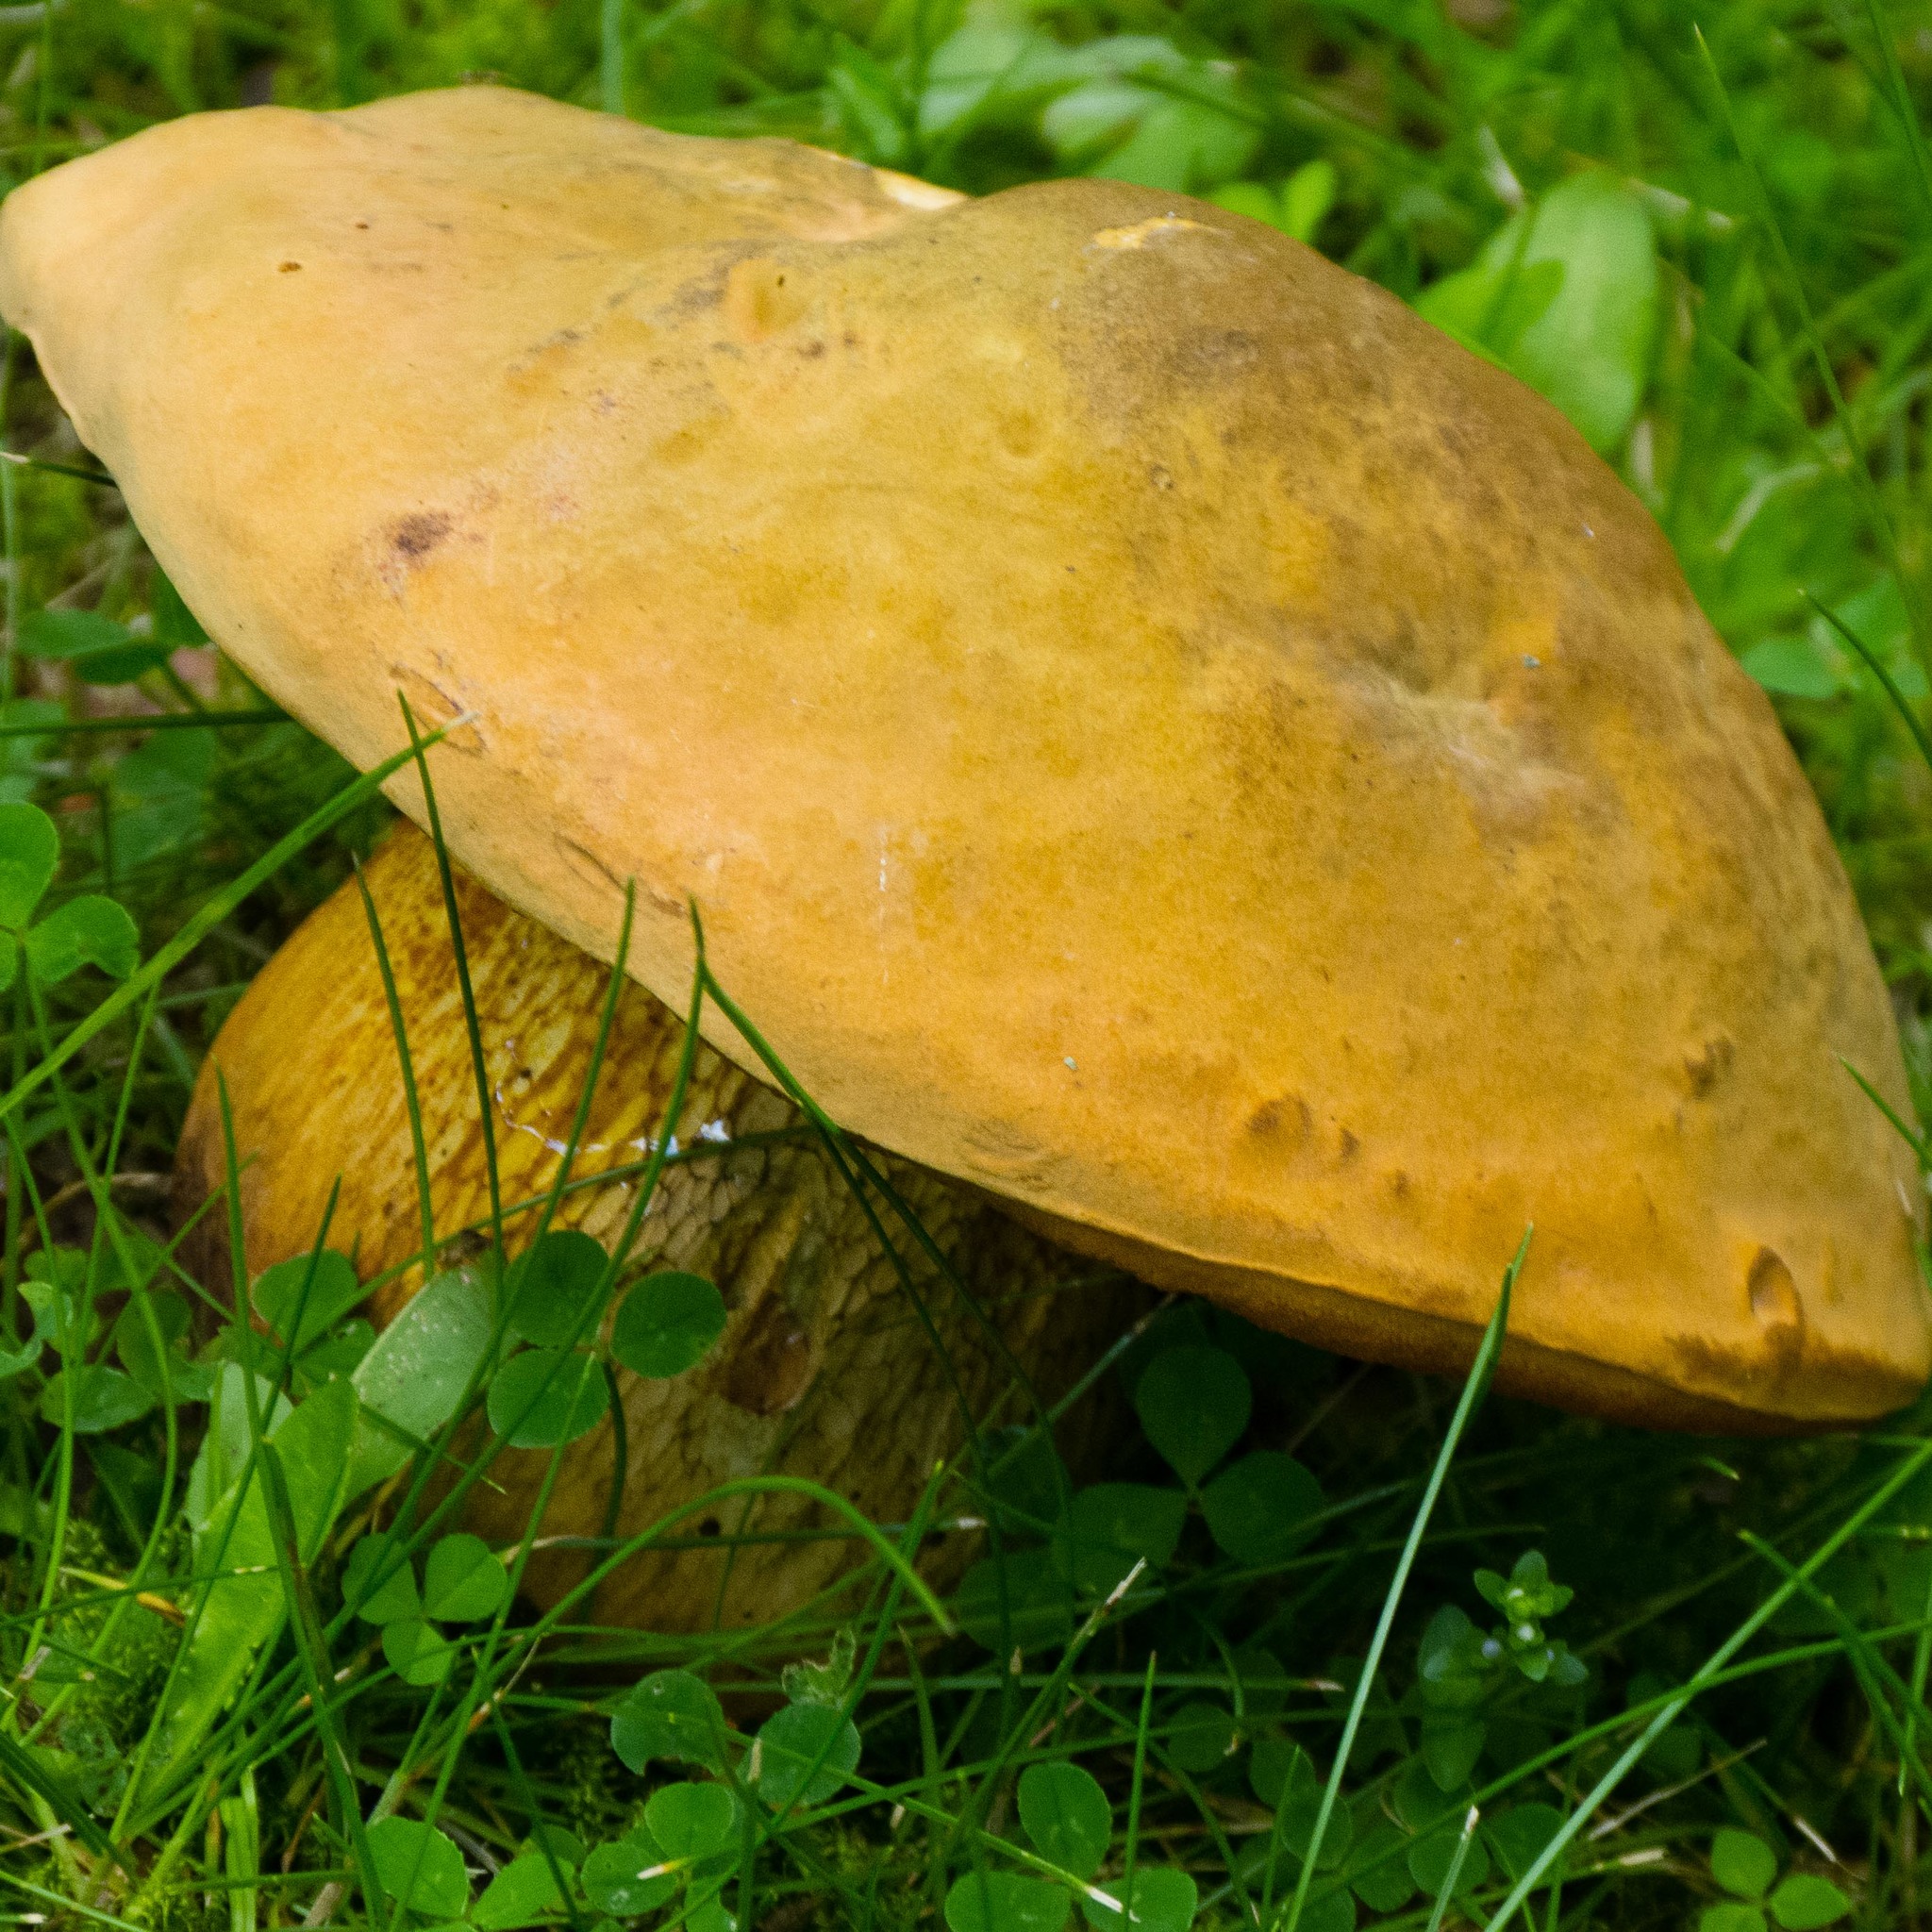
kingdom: Fungi
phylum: Basidiomycota
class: Agaricomycetes
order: Boletales
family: Boletaceae
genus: Suillellus
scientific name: Suillellus luridus
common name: Lurid bolete
